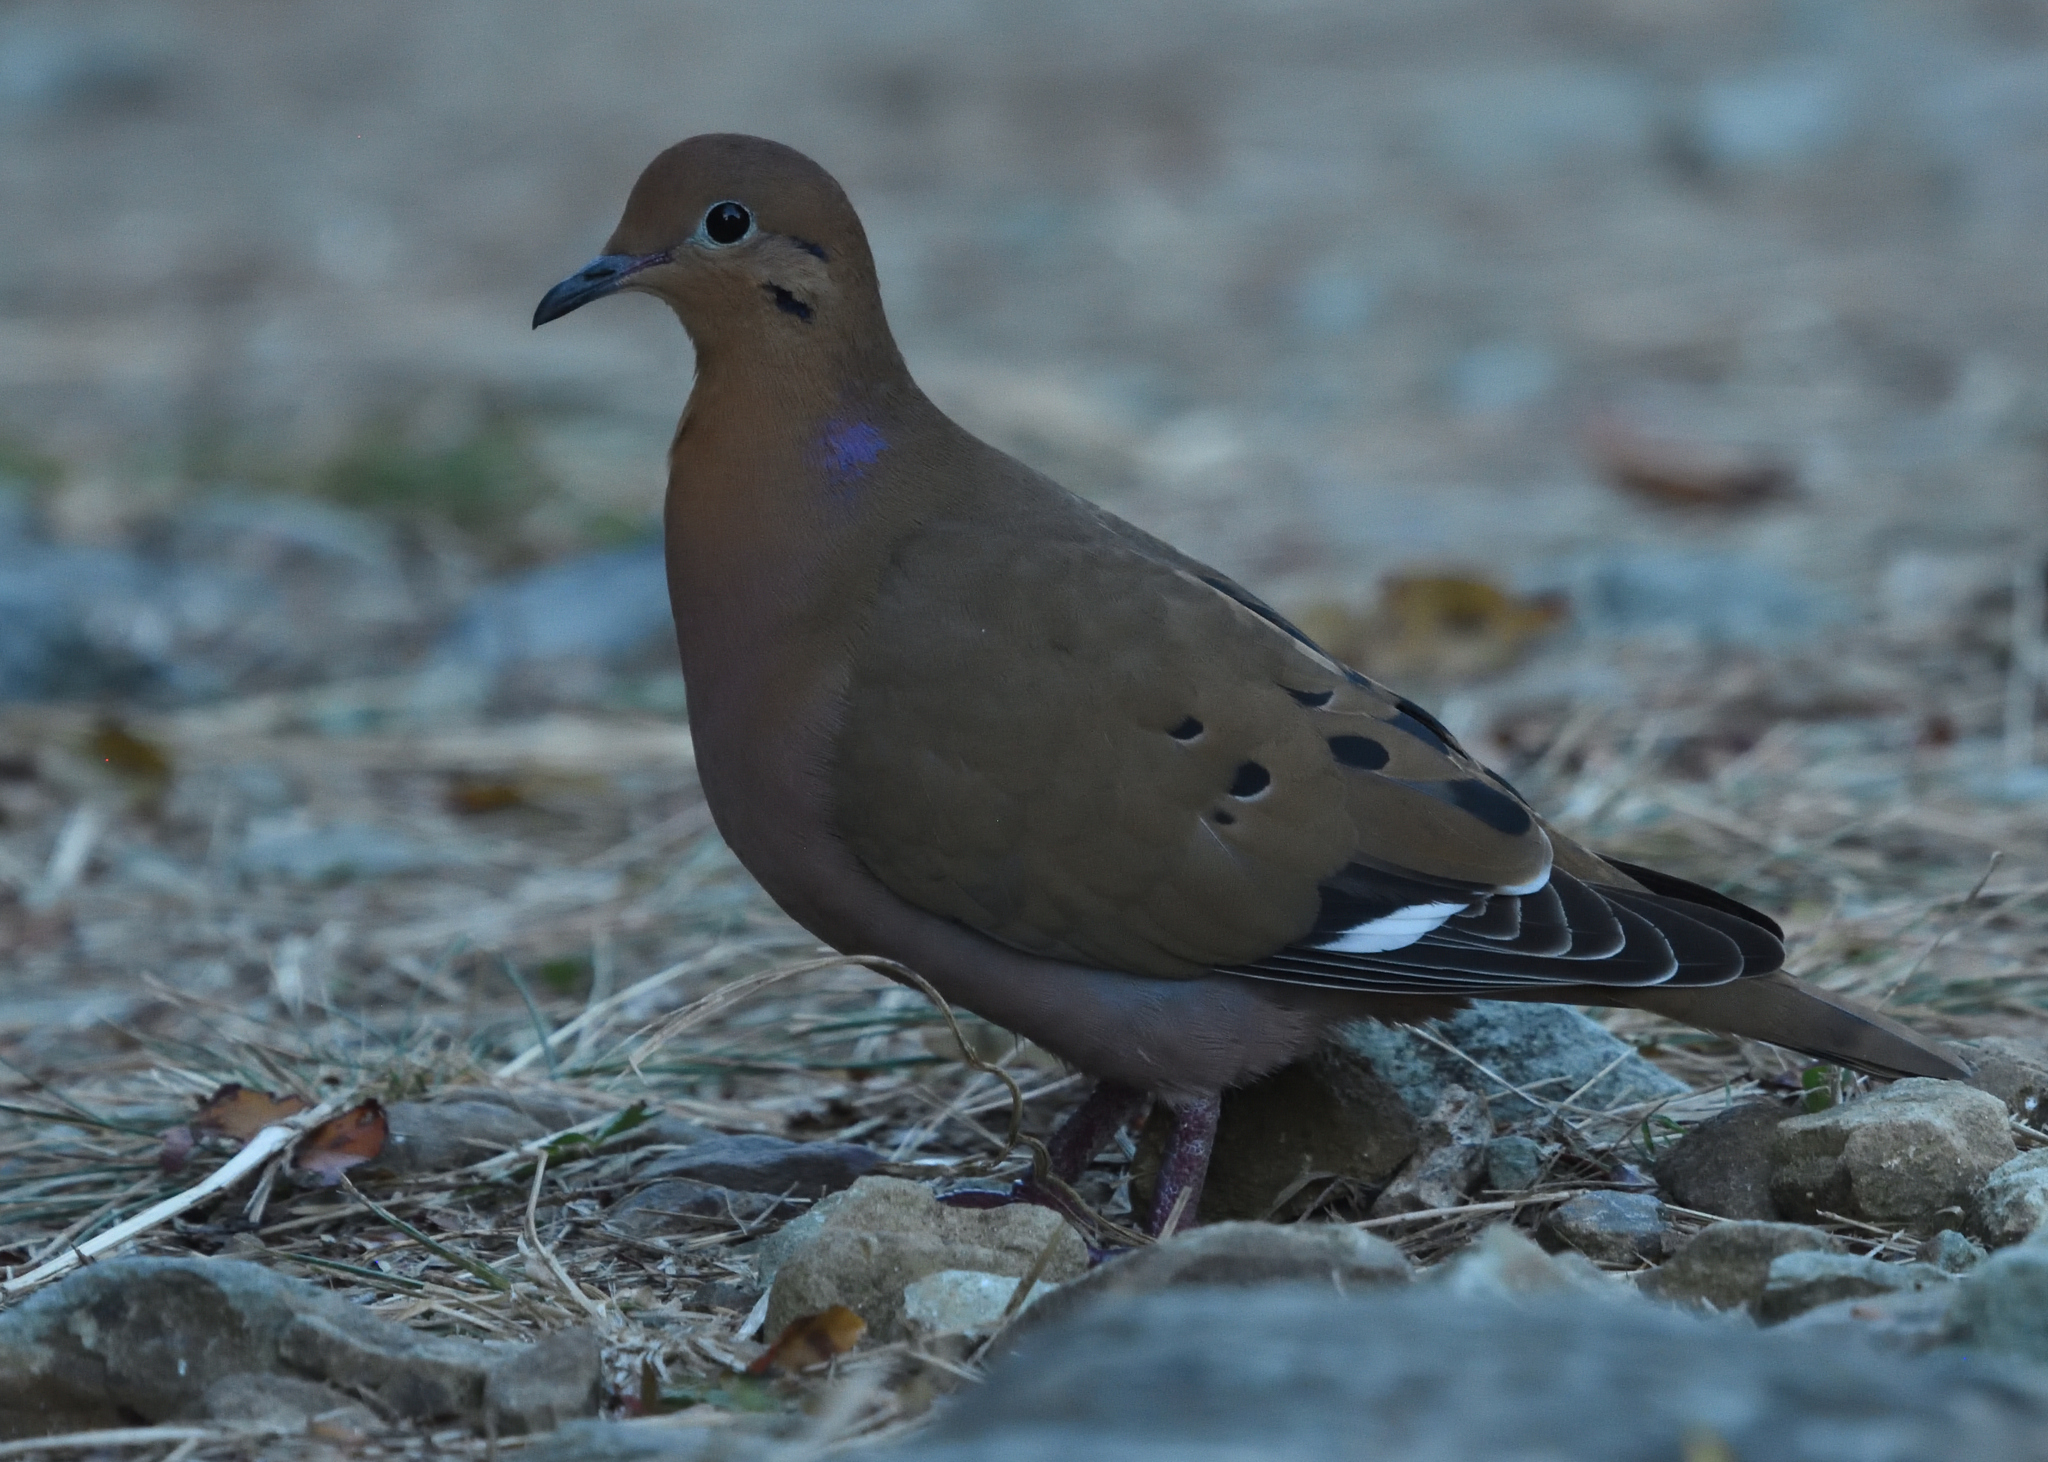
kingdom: Animalia
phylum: Chordata
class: Aves
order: Columbiformes
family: Columbidae
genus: Zenaida
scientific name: Zenaida aurita
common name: Zenaida dove
